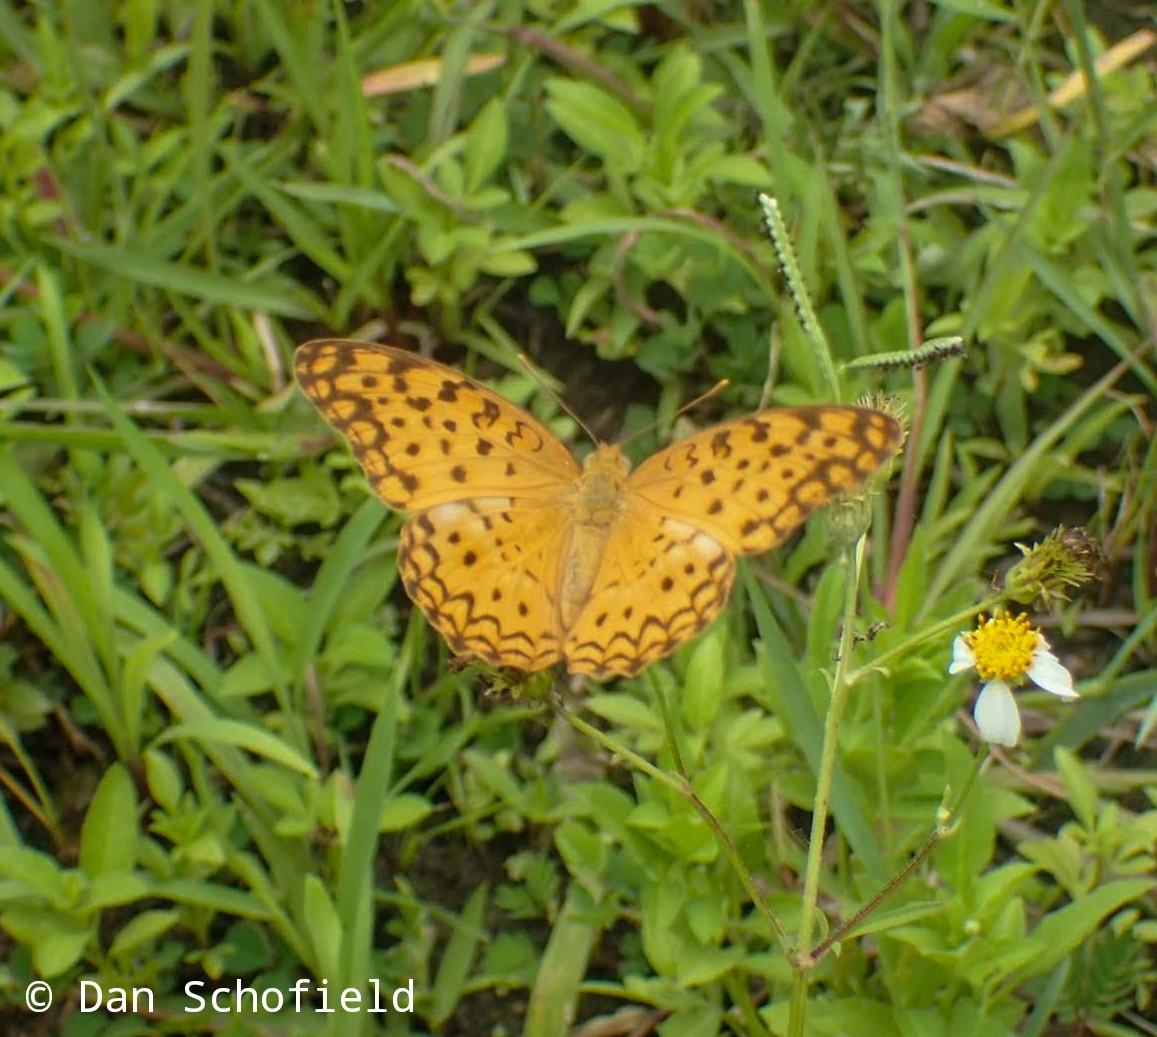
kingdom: Animalia
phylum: Arthropoda
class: Insecta
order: Lepidoptera
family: Nymphalidae
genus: Phalanta
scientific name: Phalanta phalantha
